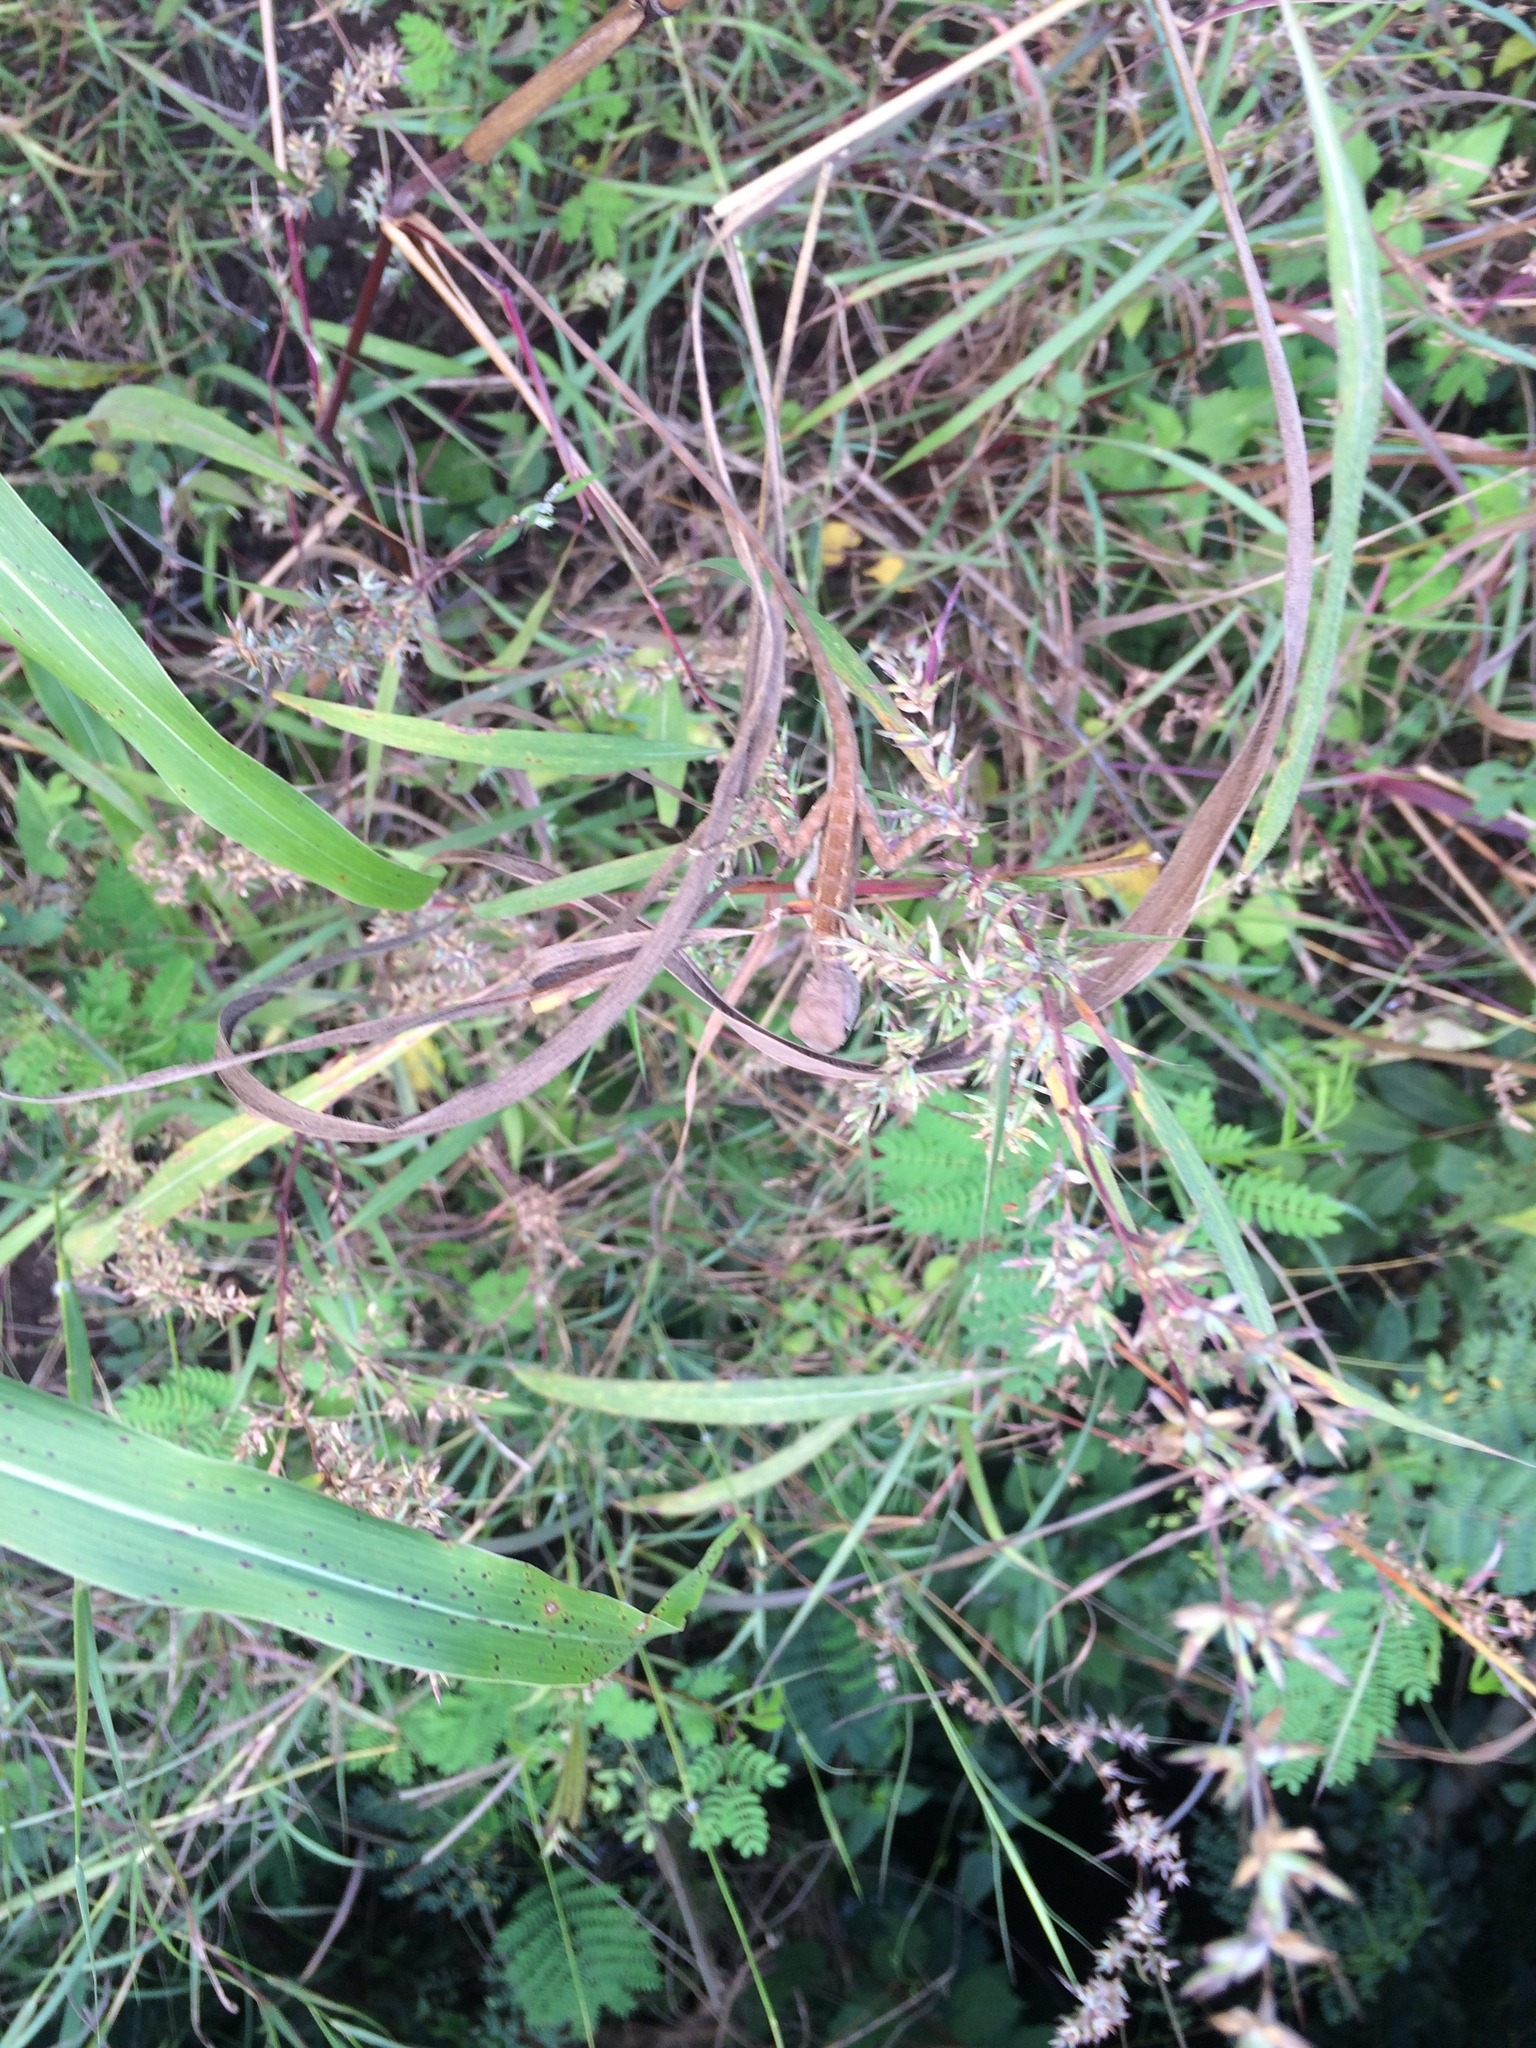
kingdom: Plantae
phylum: Tracheophyta
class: Magnoliopsida
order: Caryophyllales
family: Amaranthaceae
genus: Celosia
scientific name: Celosia argentea
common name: Feather cockscomb
